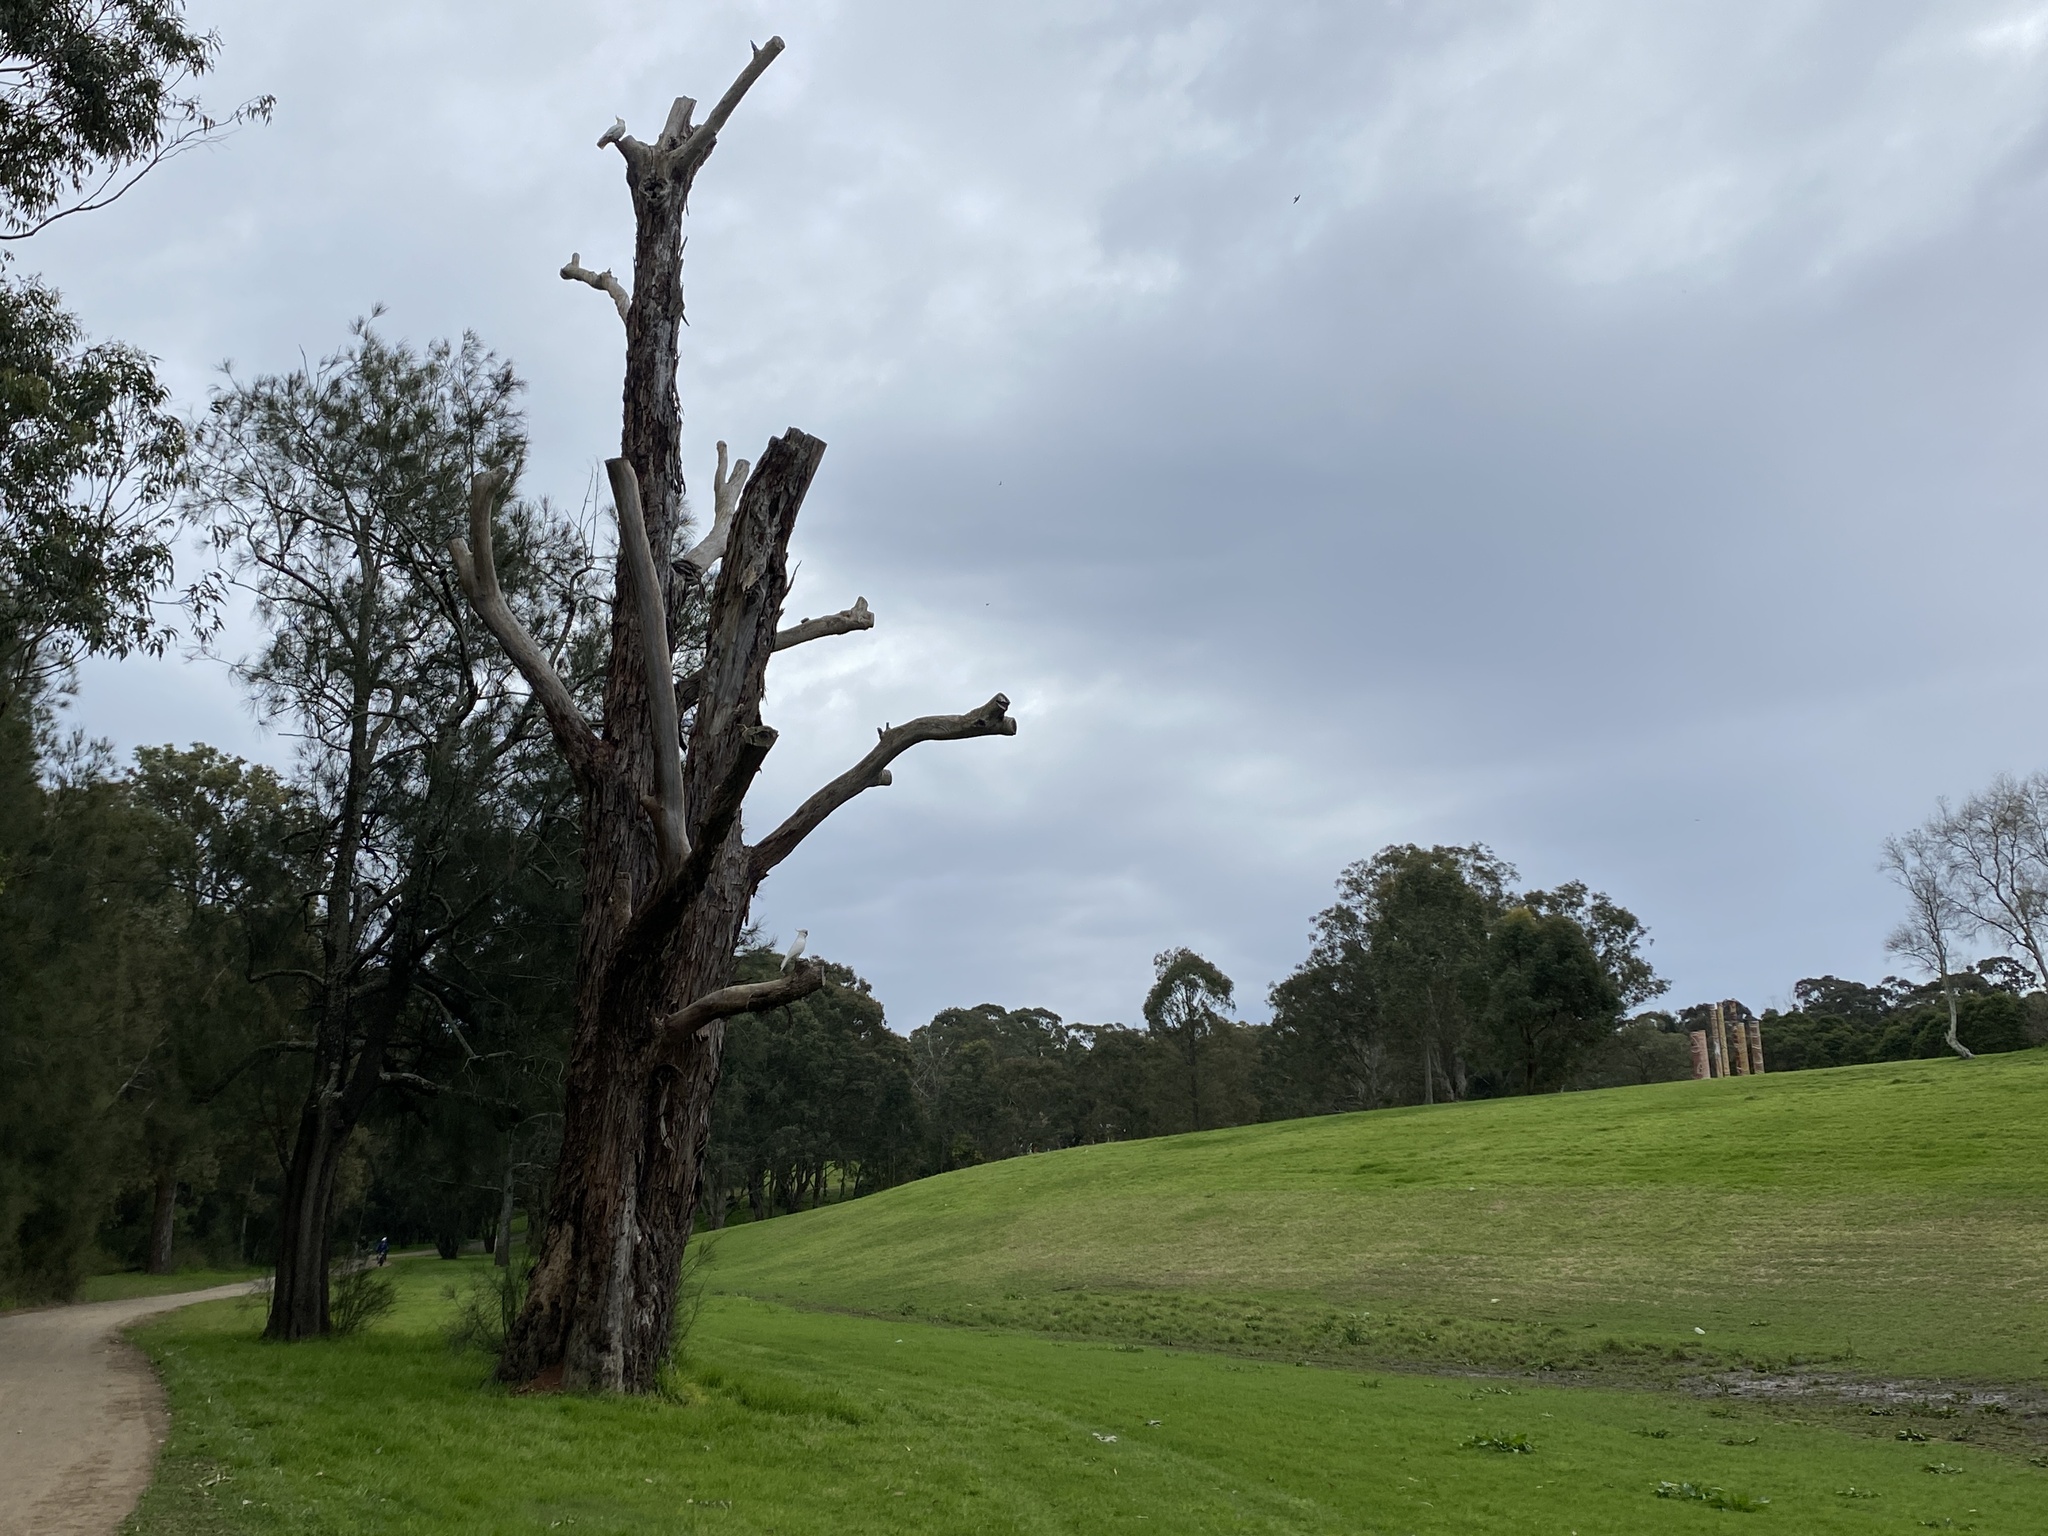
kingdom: Animalia
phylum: Chordata
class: Aves
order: Psittaciformes
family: Psittacidae
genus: Cacatua
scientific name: Cacatua galerita
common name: Sulphur-crested cockatoo
